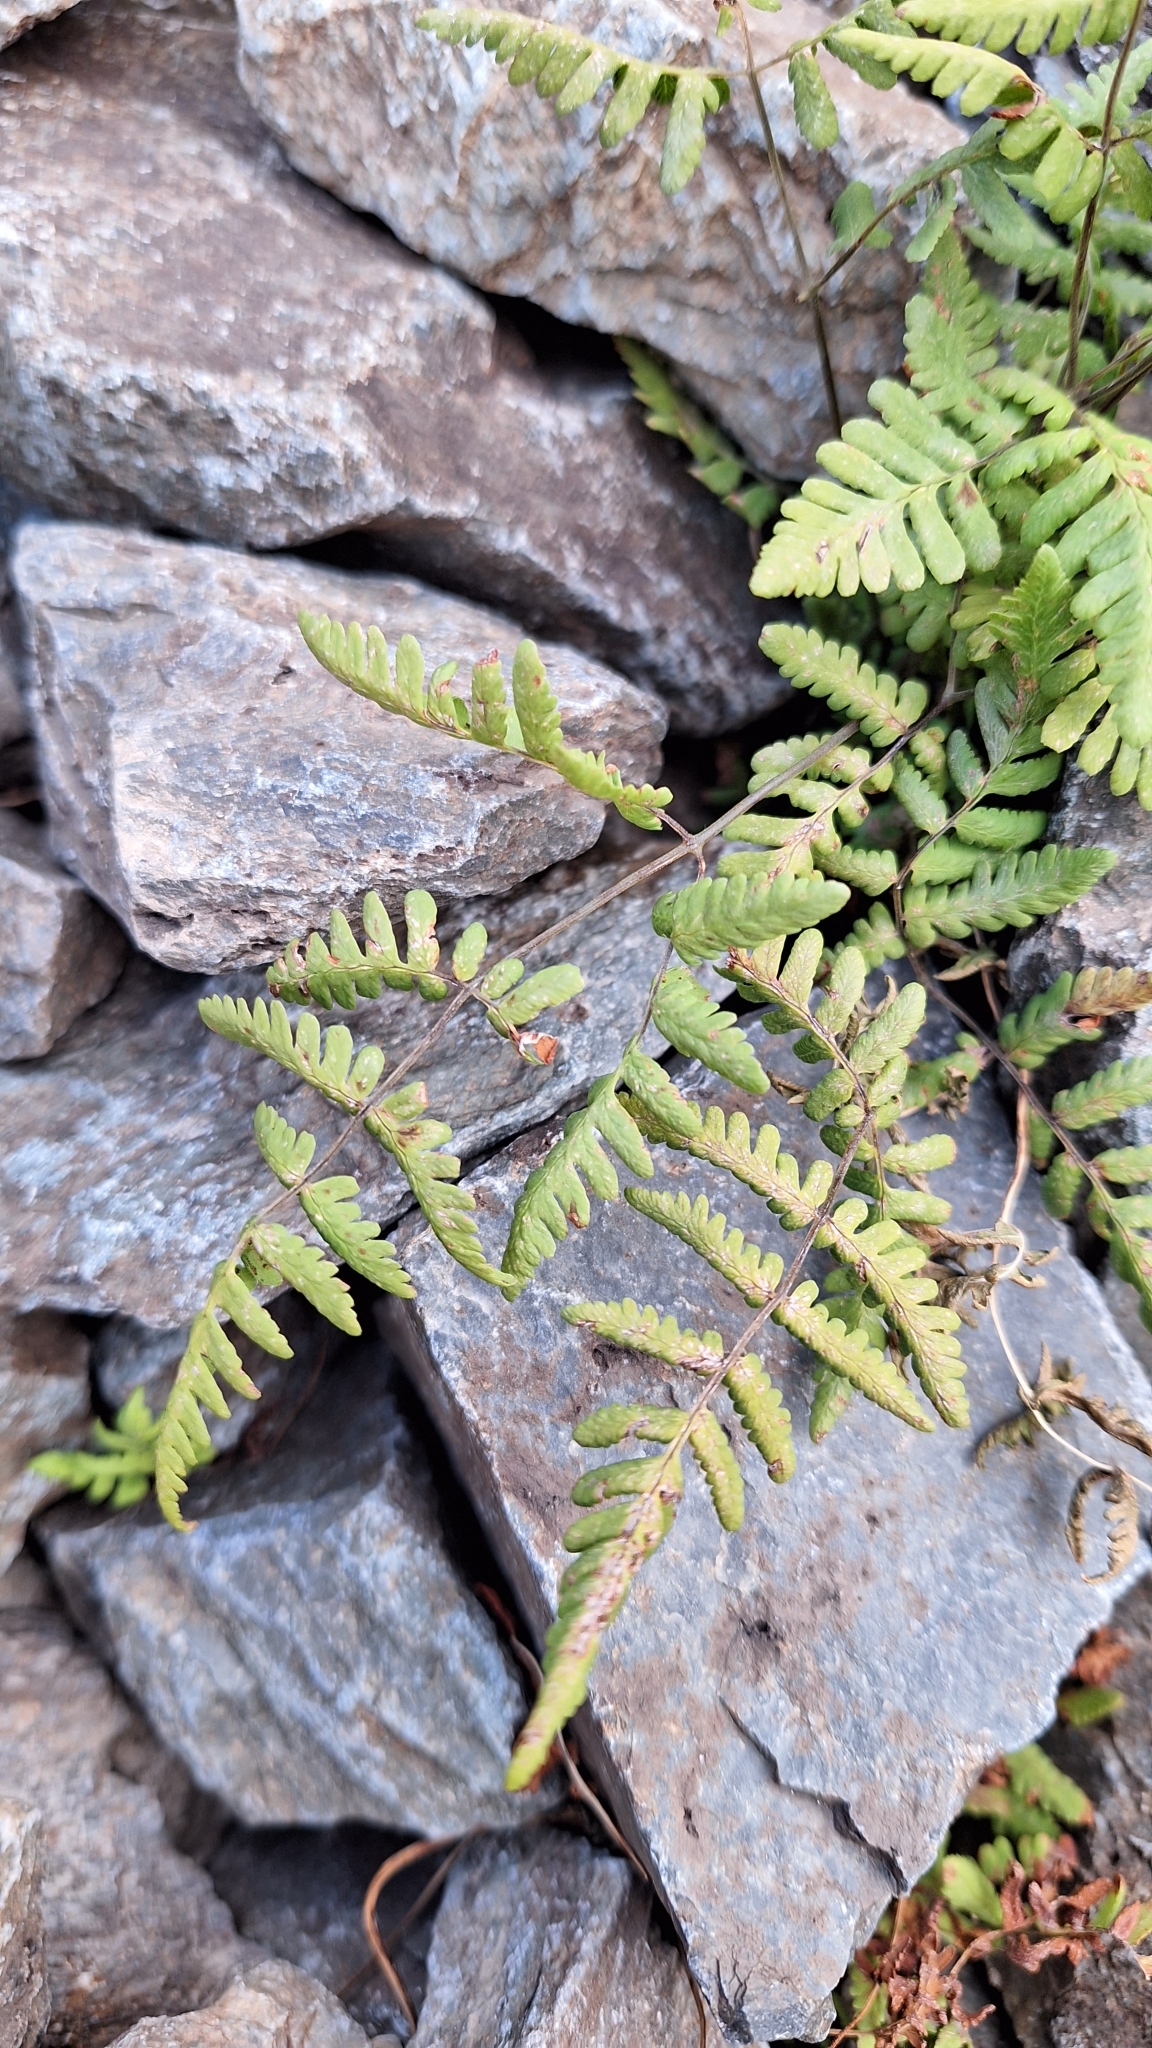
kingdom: Plantae
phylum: Tracheophyta
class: Polypodiopsida
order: Polypodiales
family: Cystopteridaceae
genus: Gymnocarpium
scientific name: Gymnocarpium jessoense
